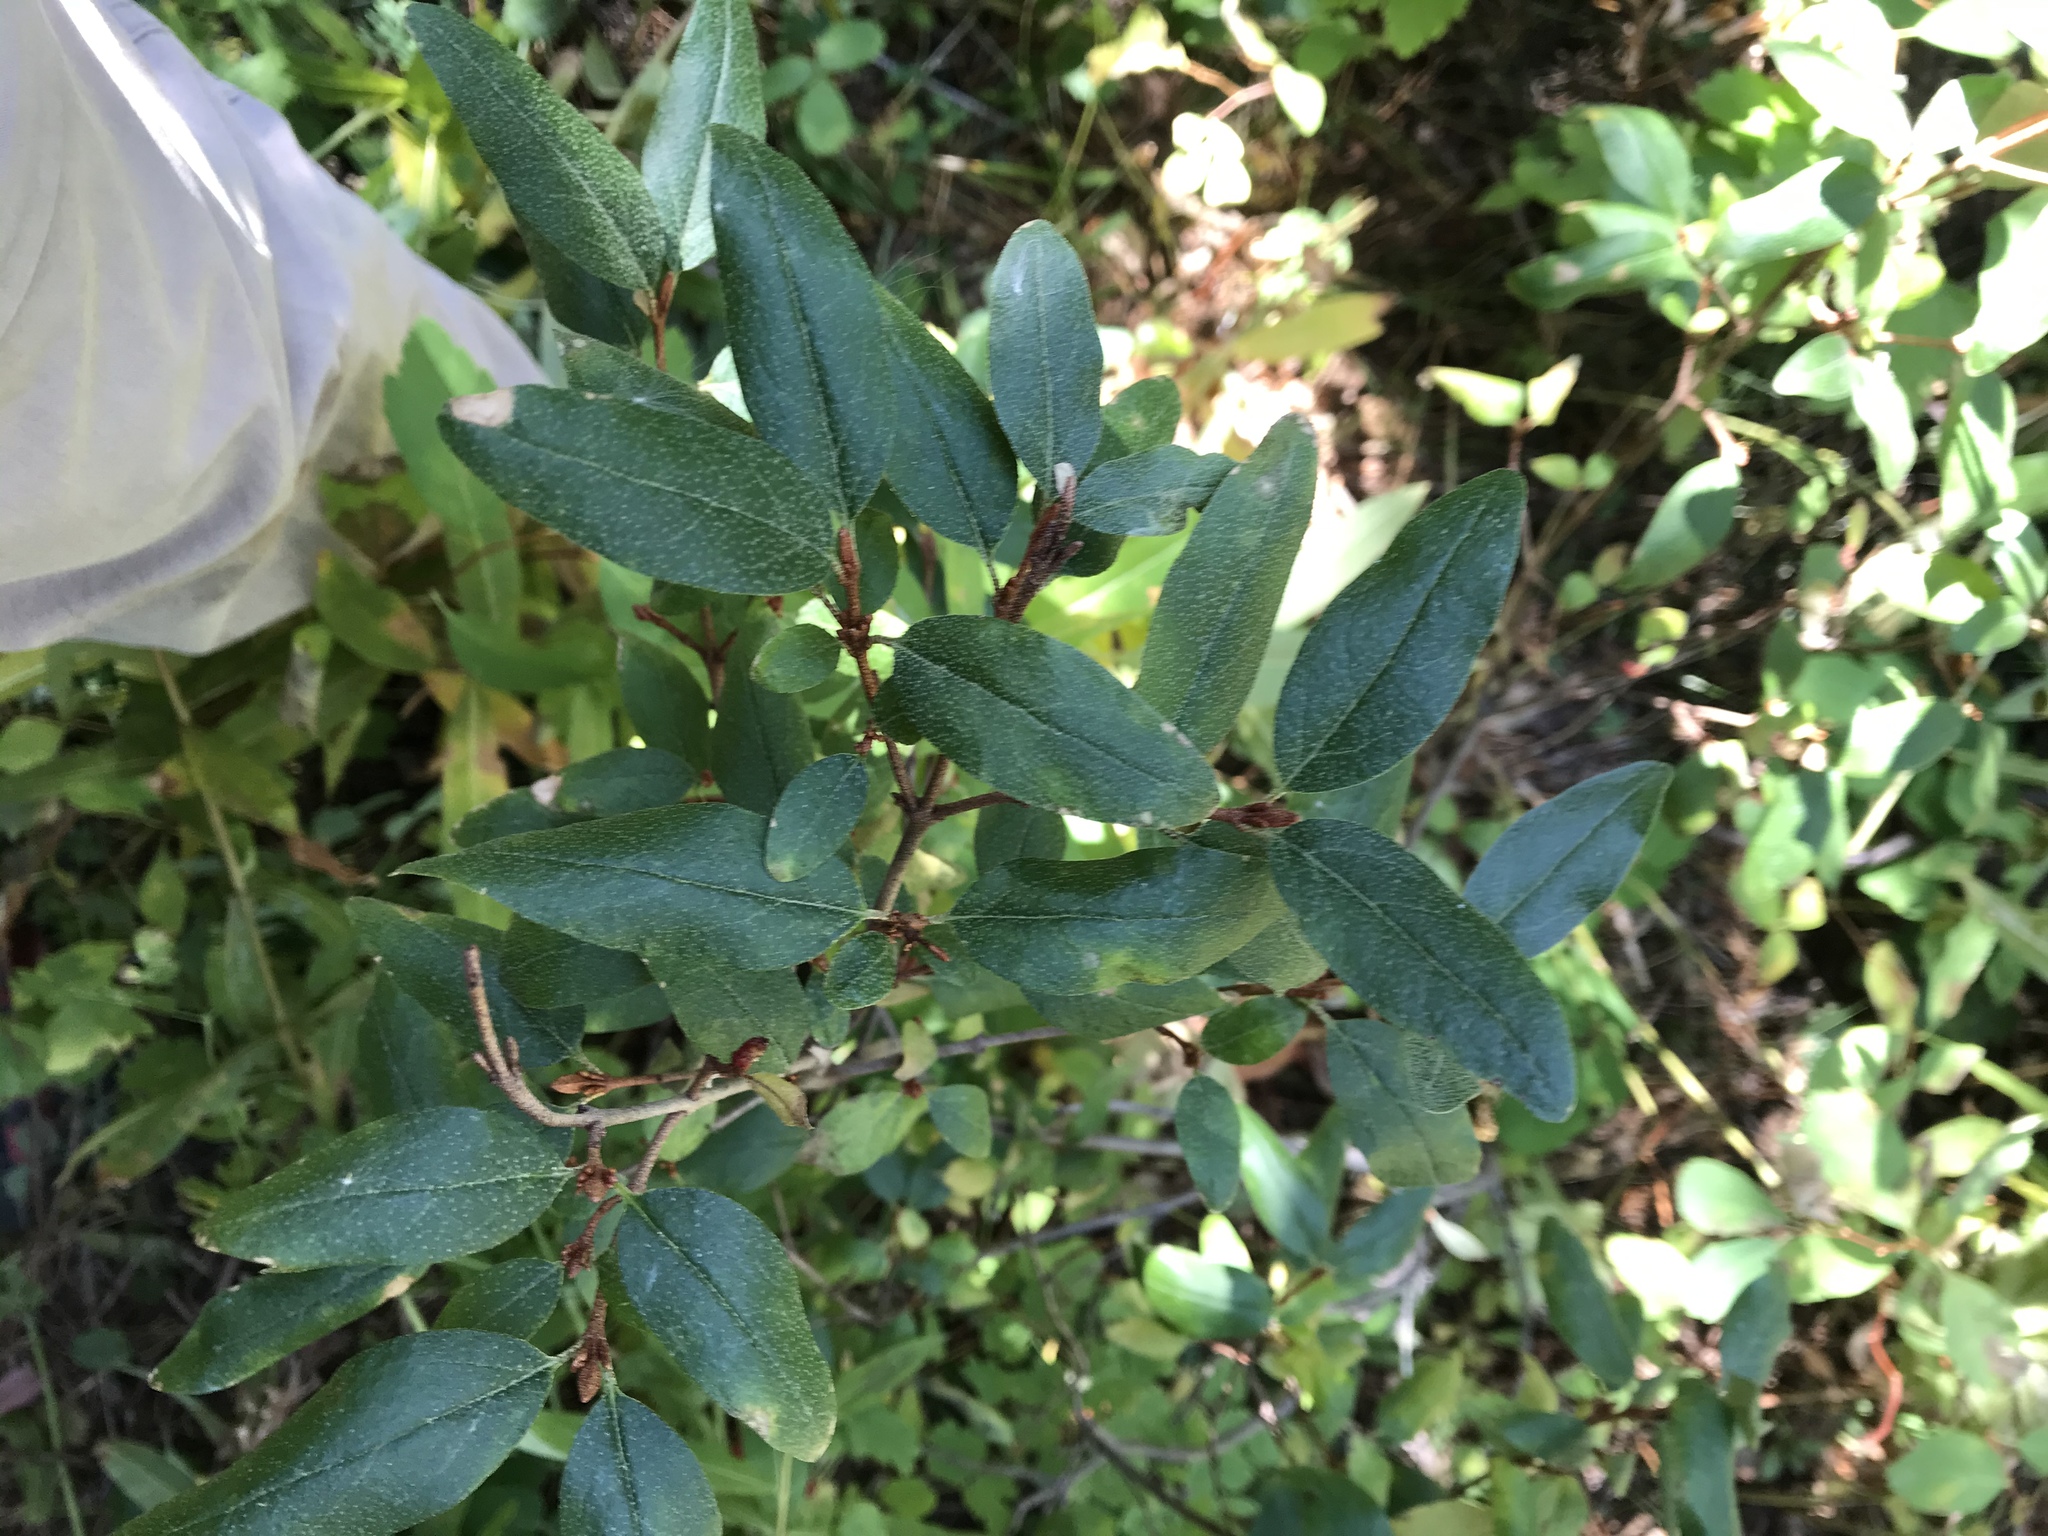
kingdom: Plantae
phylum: Tracheophyta
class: Magnoliopsida
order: Rosales
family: Elaeagnaceae
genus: Shepherdia
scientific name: Shepherdia canadensis
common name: Soapberry
